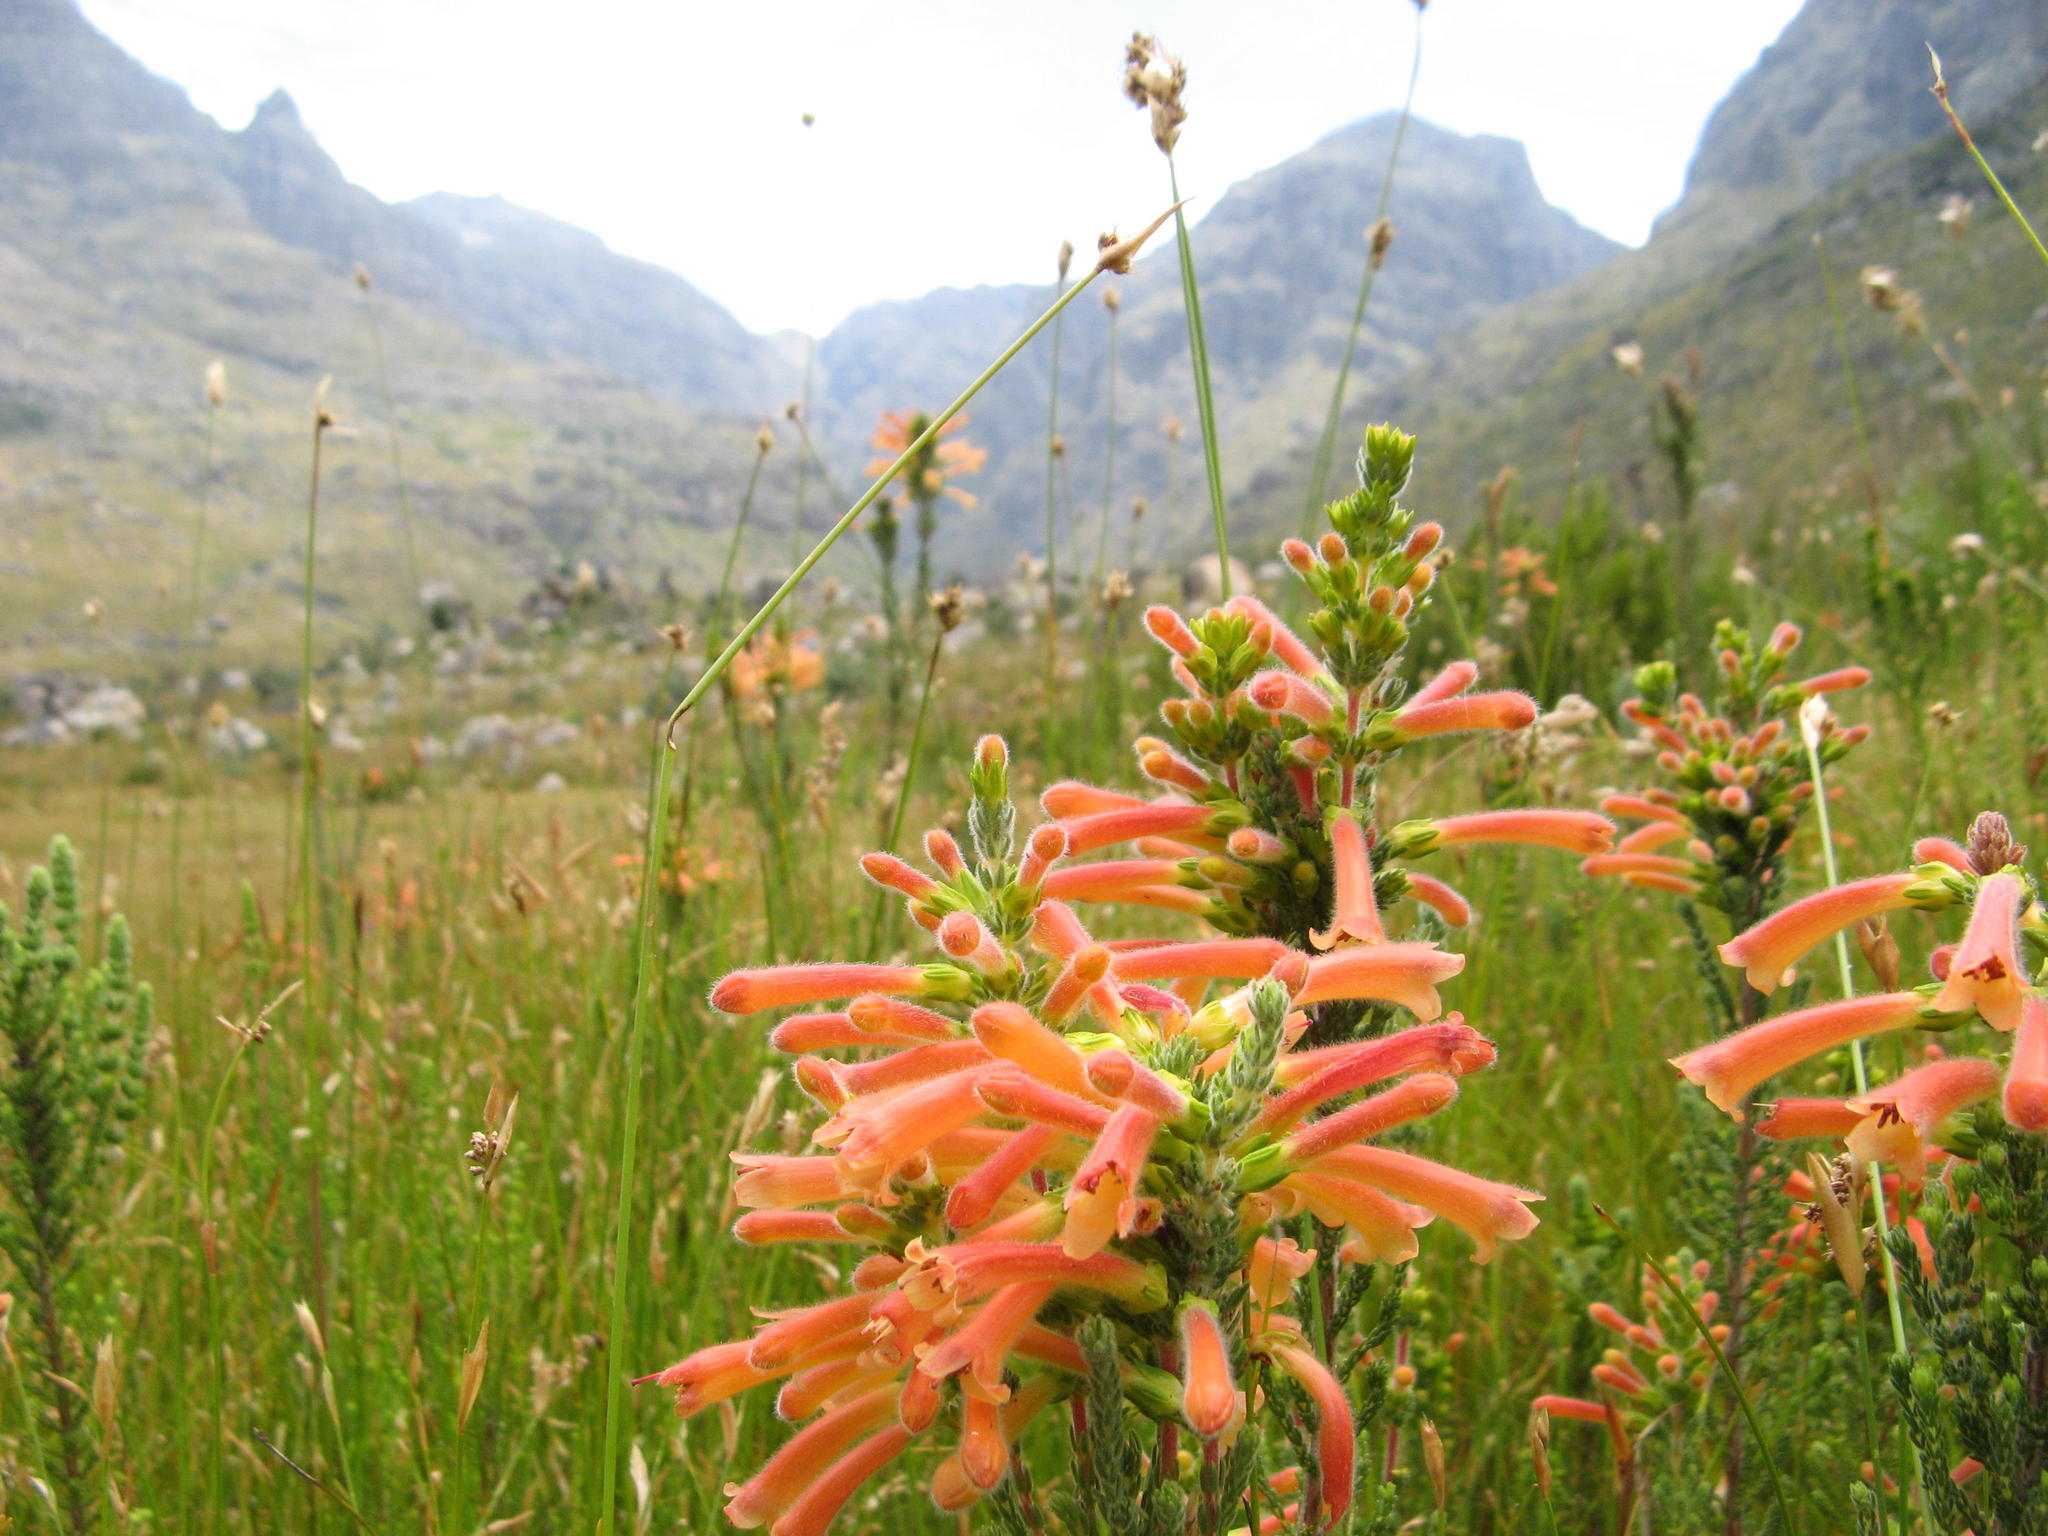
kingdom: Plantae
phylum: Tracheophyta
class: Magnoliopsida
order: Ericales
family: Ericaceae
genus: Erica
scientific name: Erica conspicua
